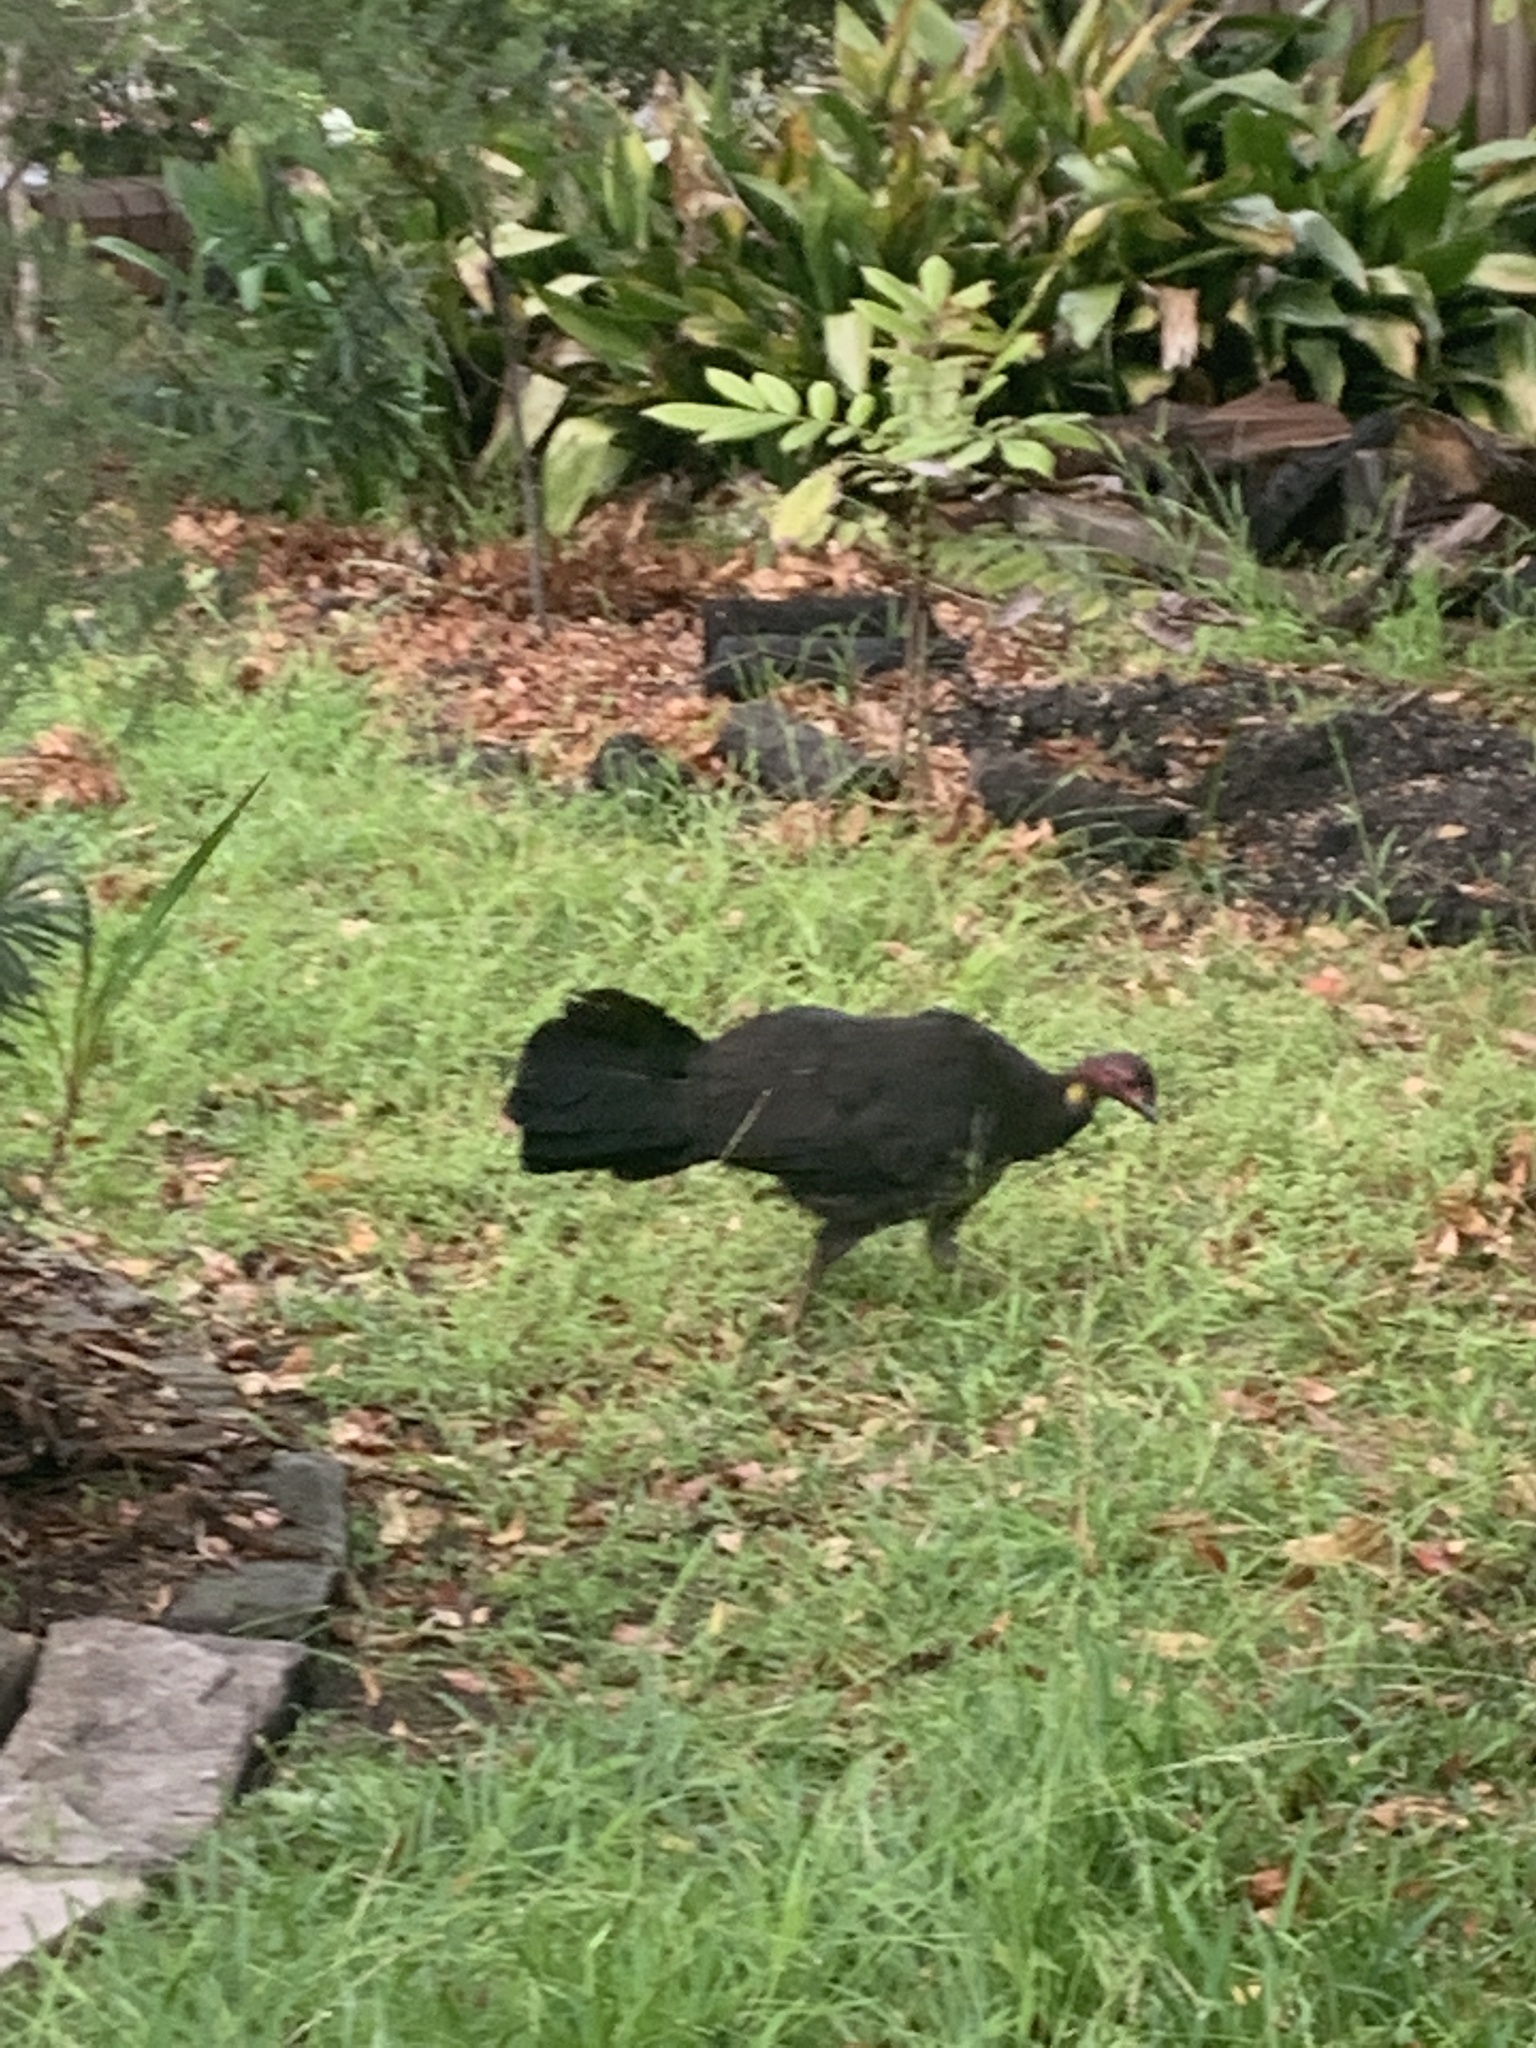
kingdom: Animalia
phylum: Chordata
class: Aves
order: Galliformes
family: Megapodiidae
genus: Alectura
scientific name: Alectura lathami
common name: Australian brushturkey
